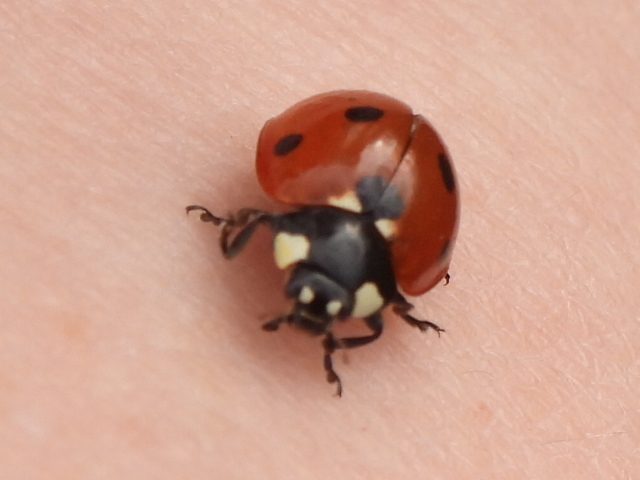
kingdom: Animalia
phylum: Arthropoda
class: Insecta
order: Coleoptera
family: Coccinellidae
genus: Coccinella
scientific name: Coccinella septempunctata
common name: Sevenspotted lady beetle
